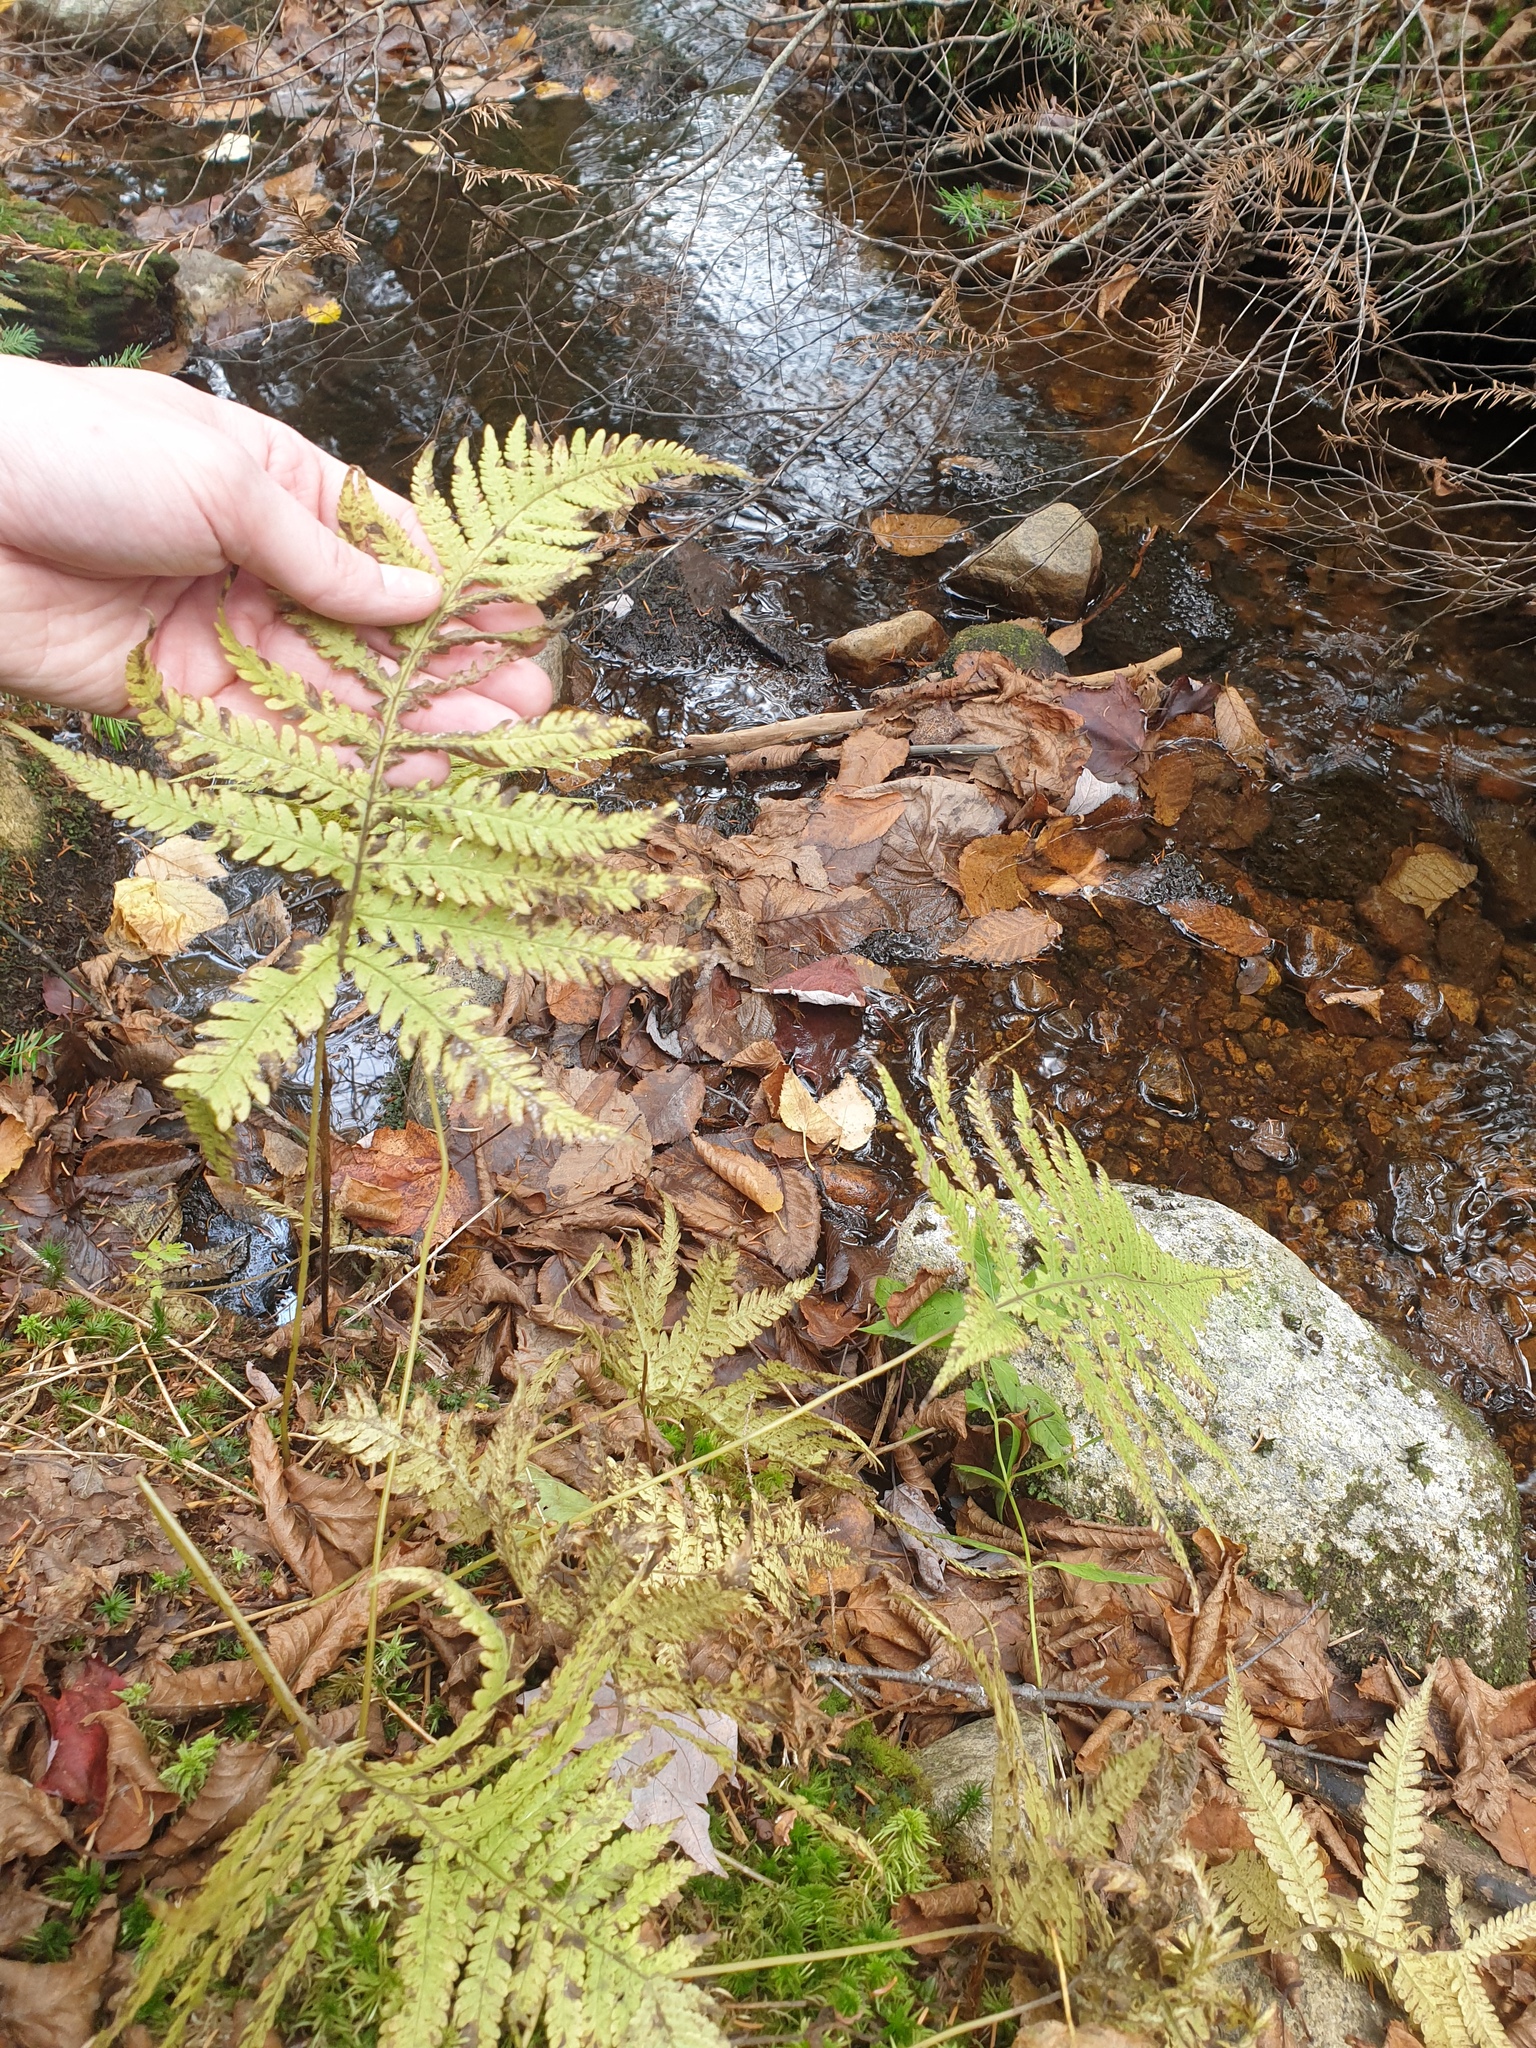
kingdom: Plantae
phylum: Tracheophyta
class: Polypodiopsida
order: Polypodiales
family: Thelypteridaceae
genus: Phegopteris
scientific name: Phegopteris connectilis
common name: Beech fern
